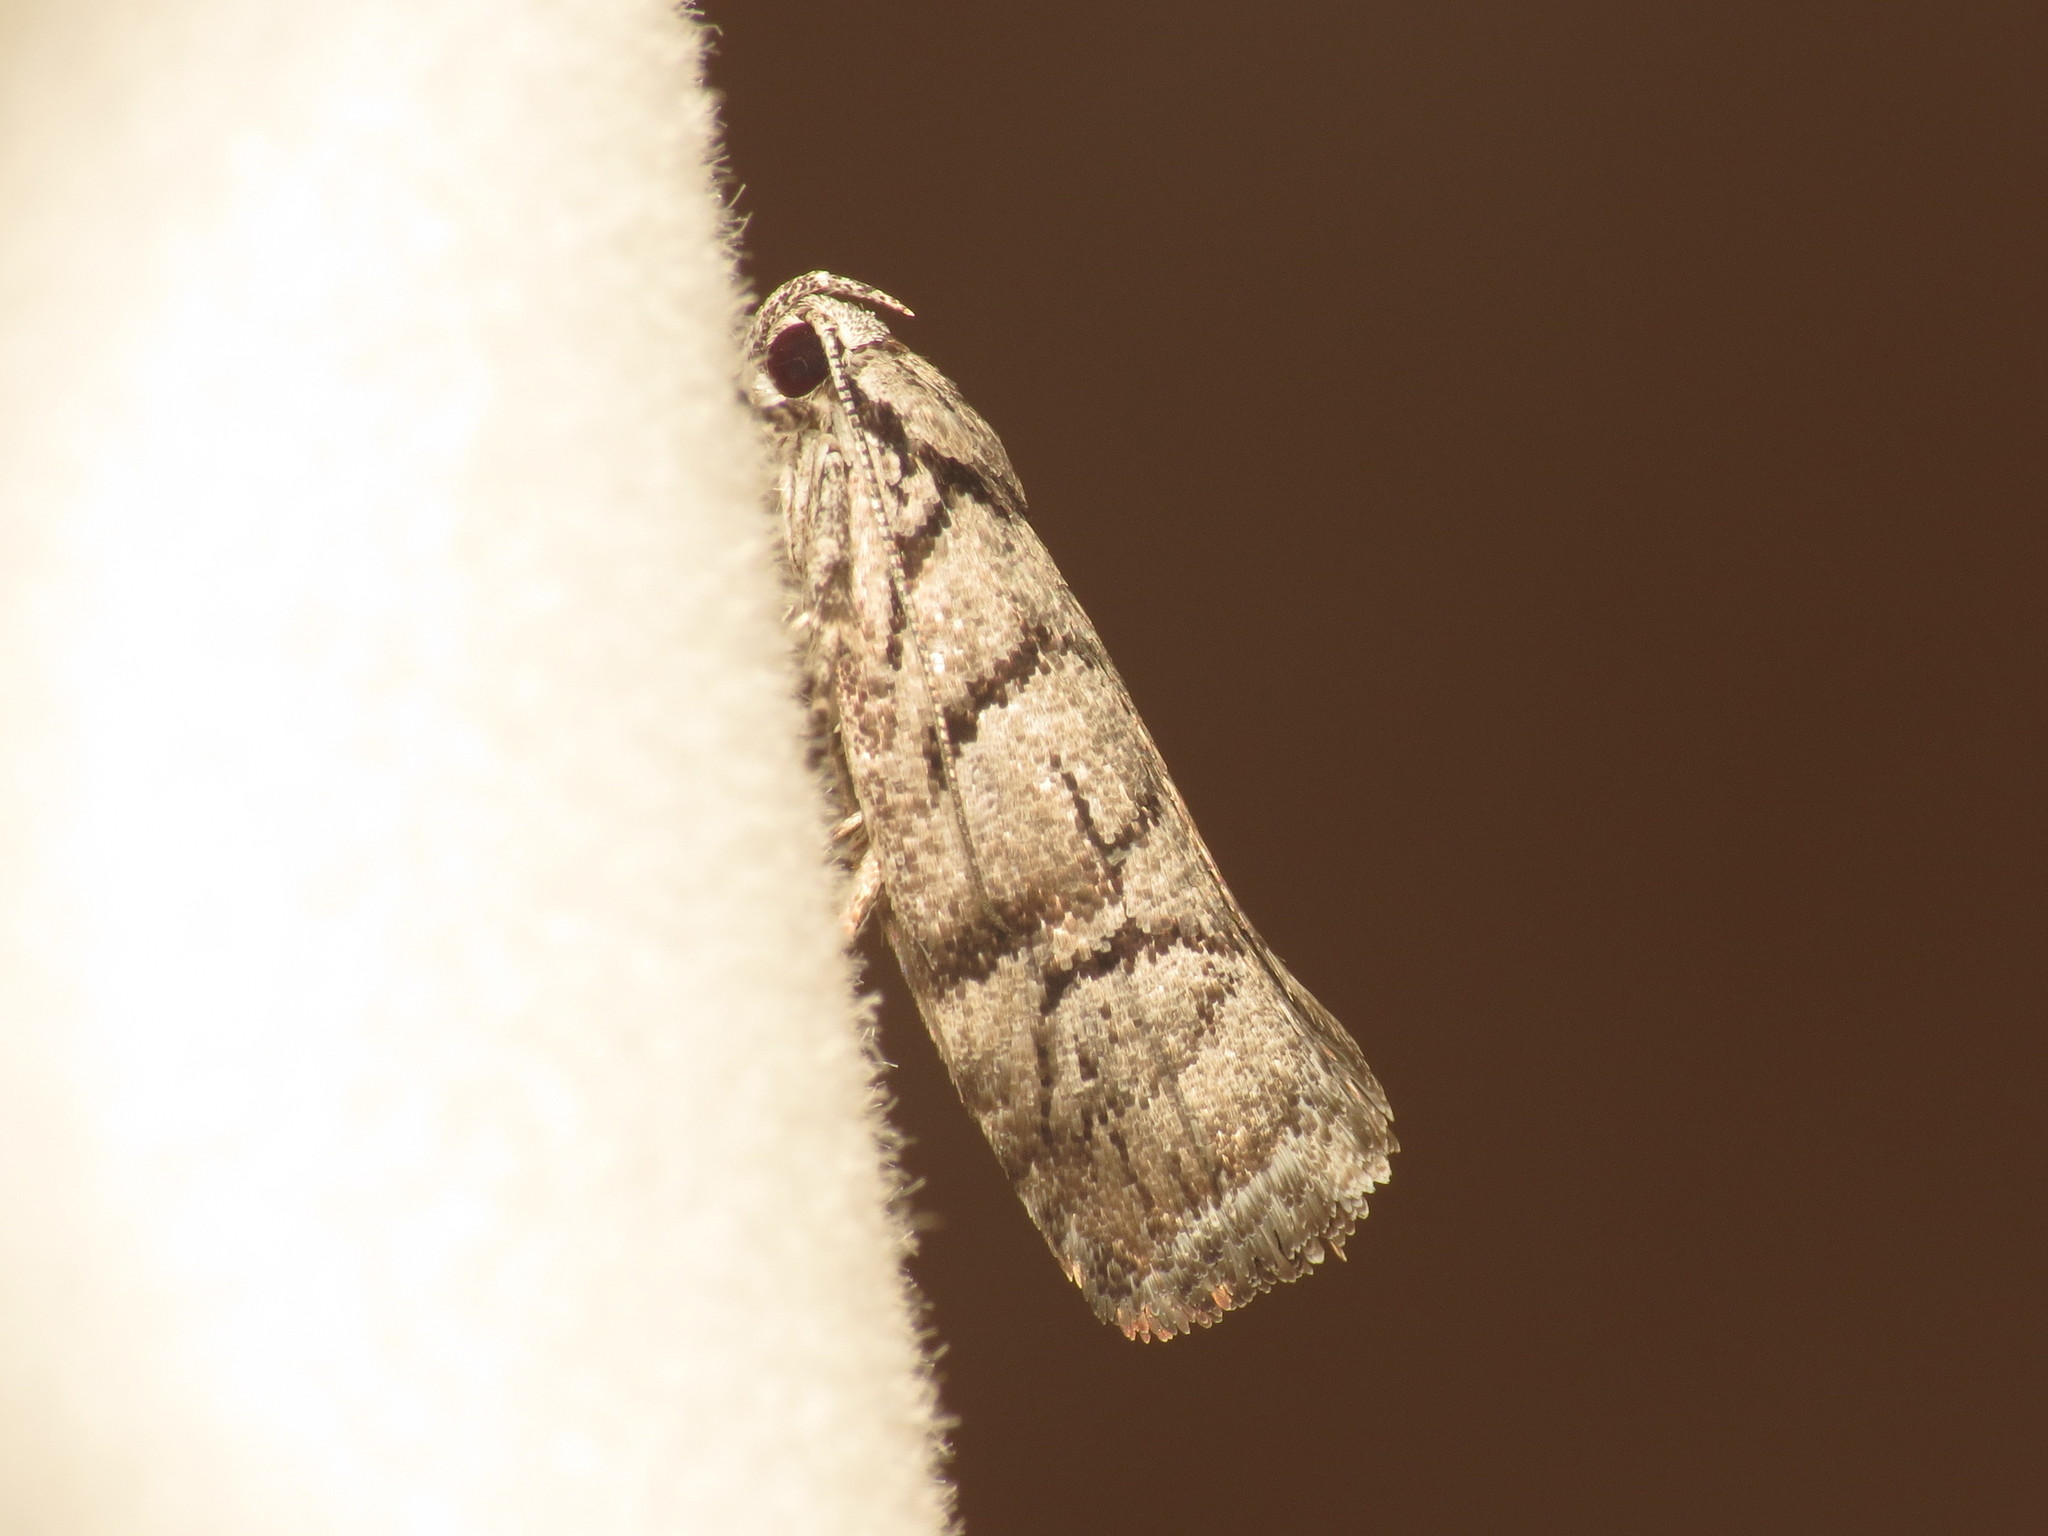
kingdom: Animalia
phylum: Arthropoda
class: Insecta
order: Lepidoptera
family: Xyloryctidae
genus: Lichenaula
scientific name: Lichenaula onychodes
